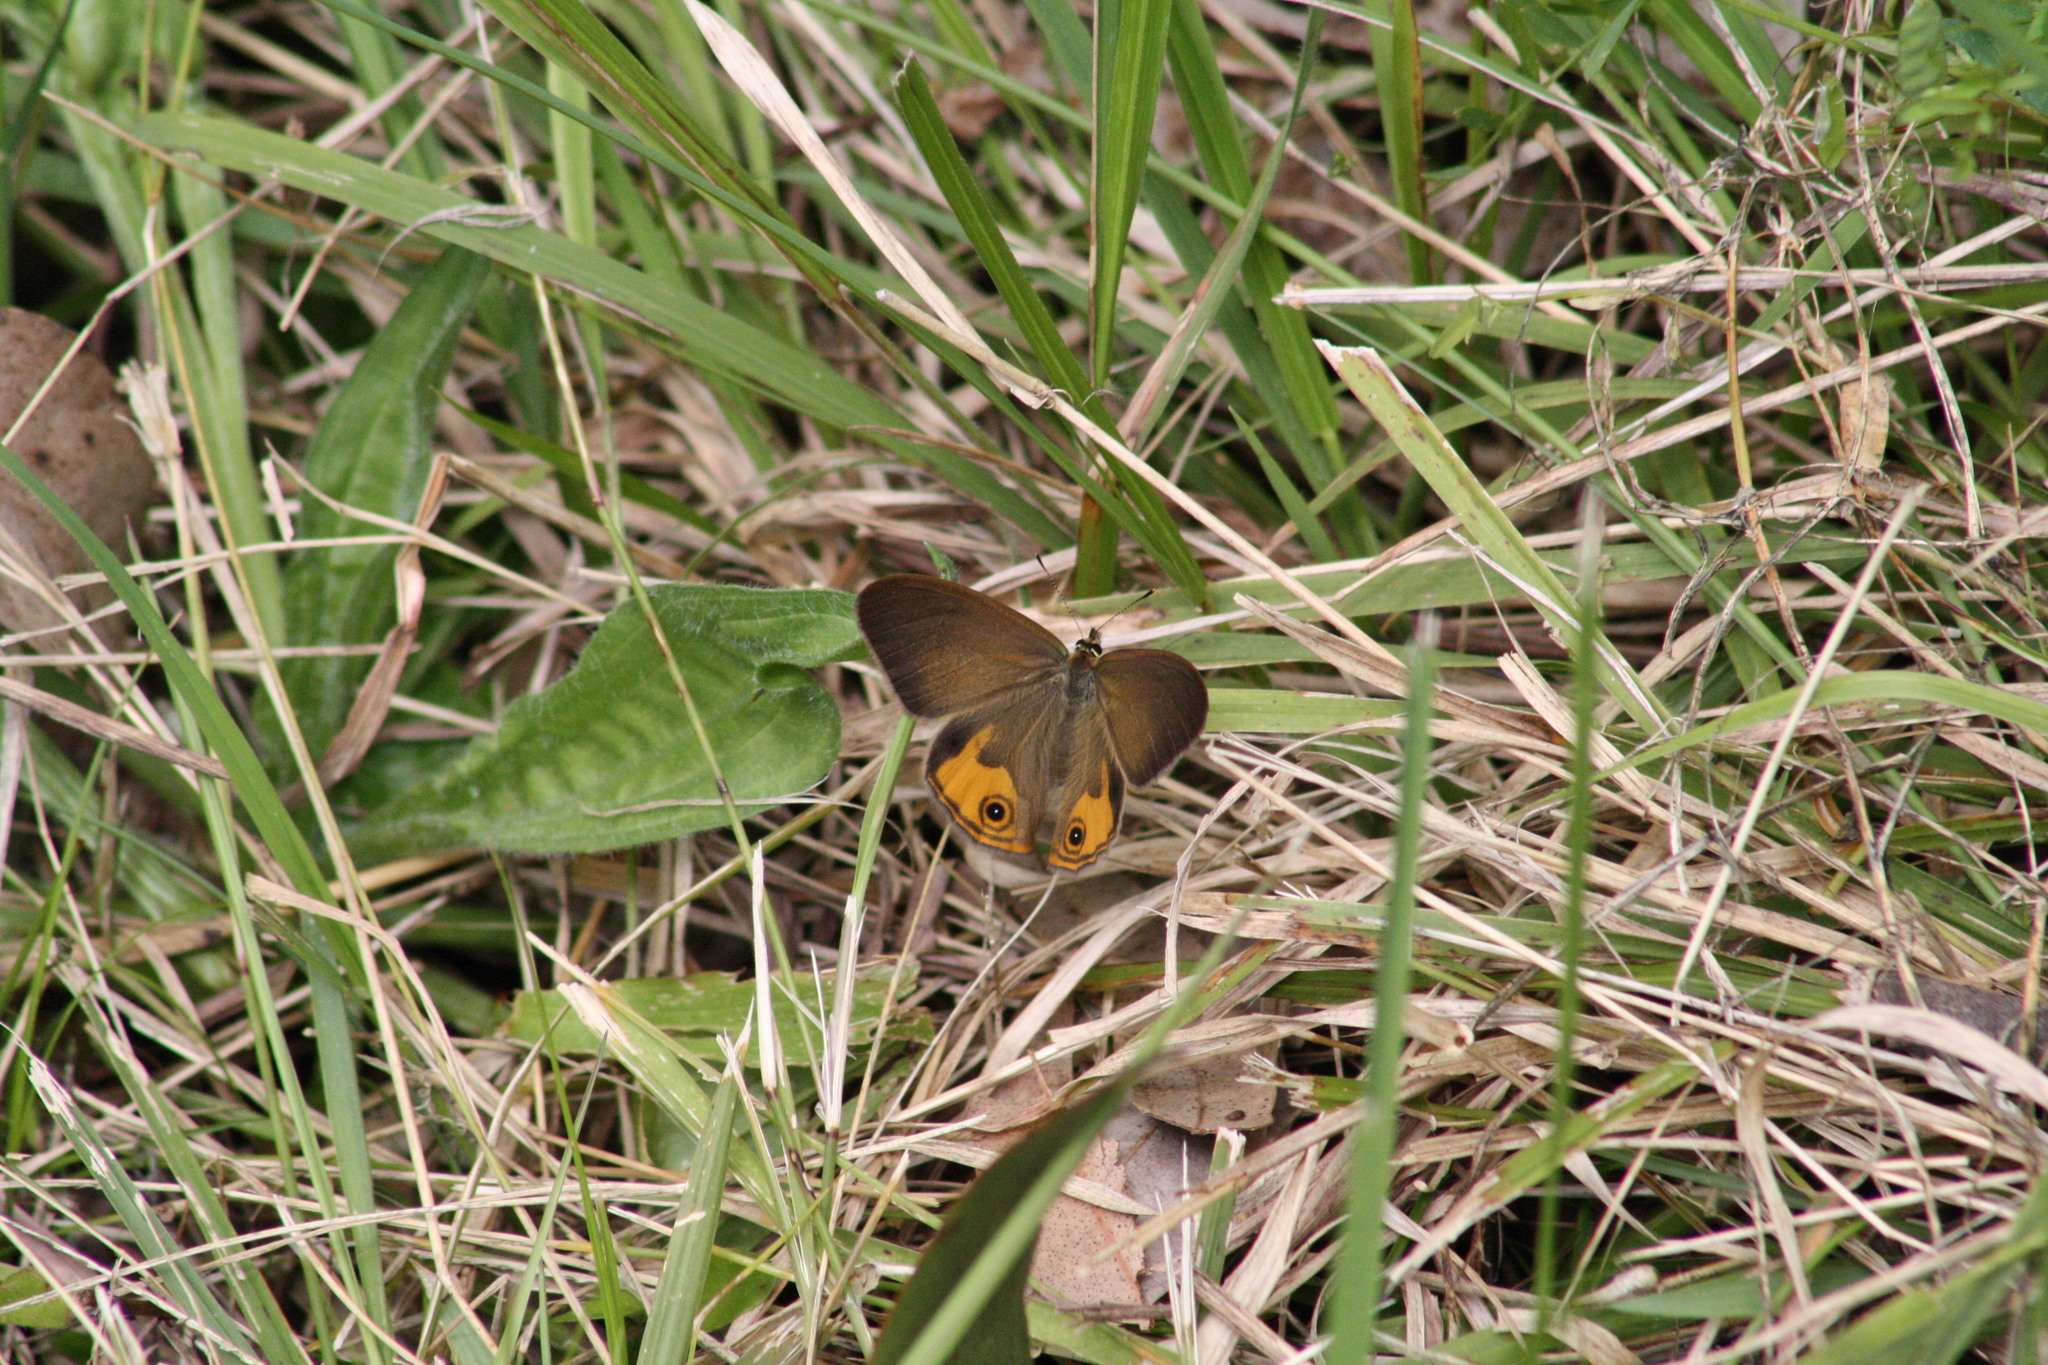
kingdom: Animalia
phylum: Arthropoda
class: Insecta
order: Lepidoptera
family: Nymphalidae
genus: Hypocysta
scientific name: Hypocysta metirius
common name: Brown ringlet
